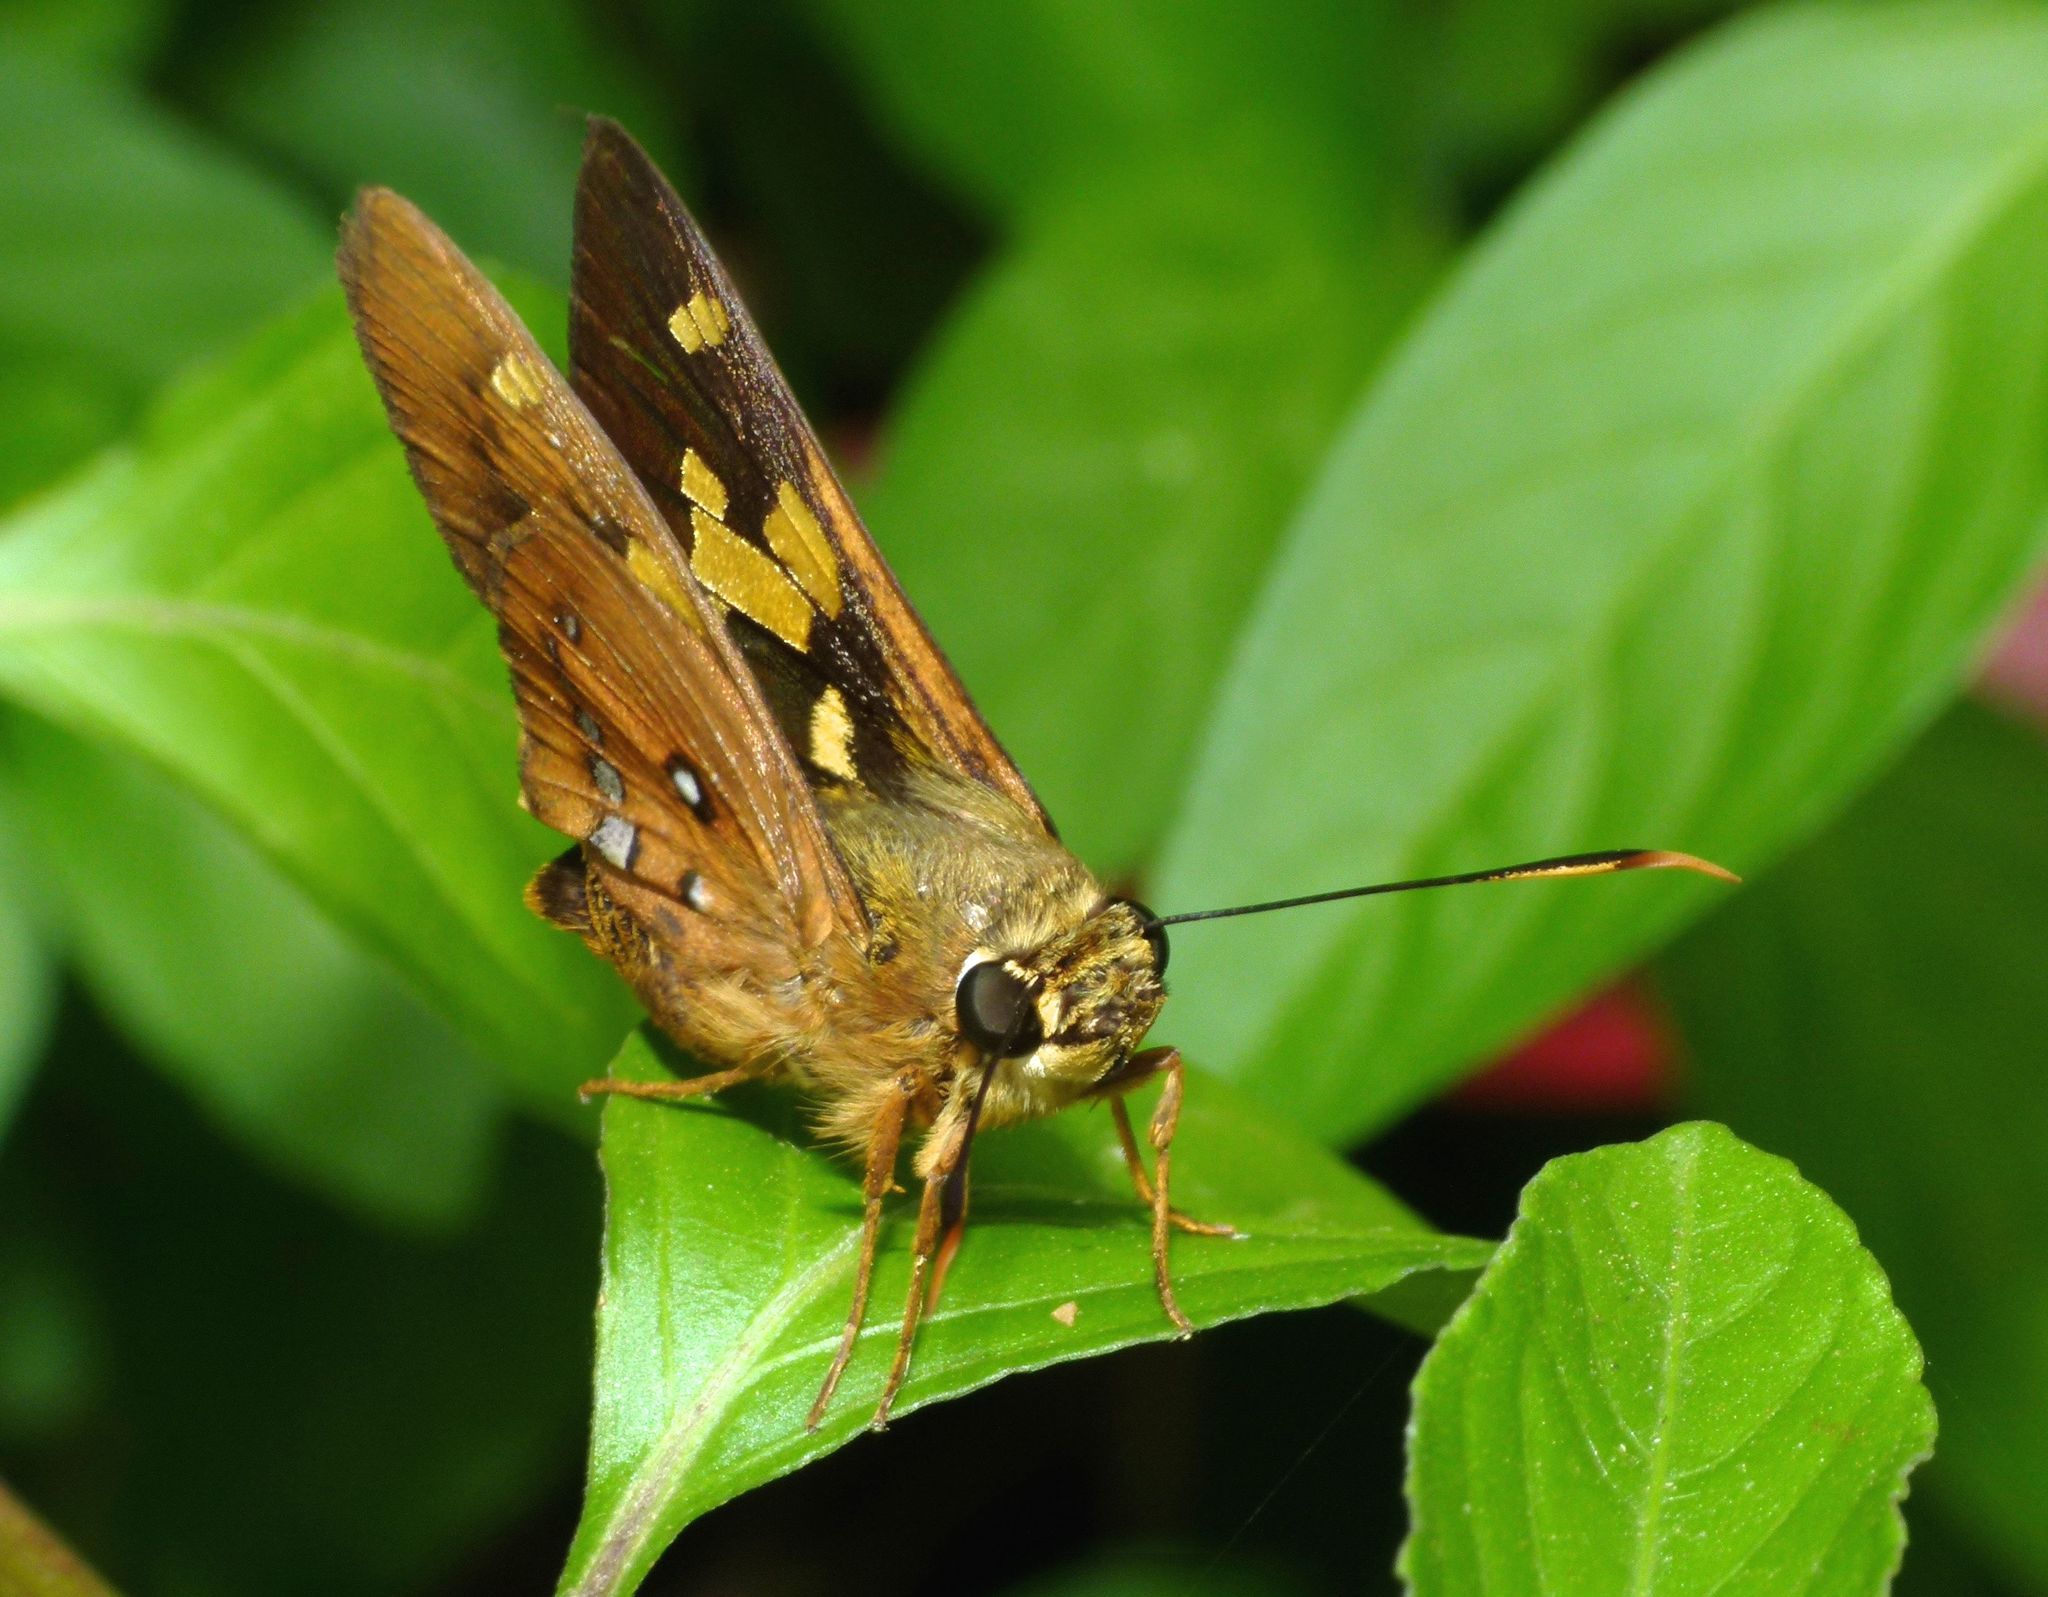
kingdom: Animalia
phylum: Arthropoda
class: Insecta
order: Lepidoptera
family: Hesperiidae
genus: Trapezites
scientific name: Trapezites symmomus
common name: Splendid ochre
